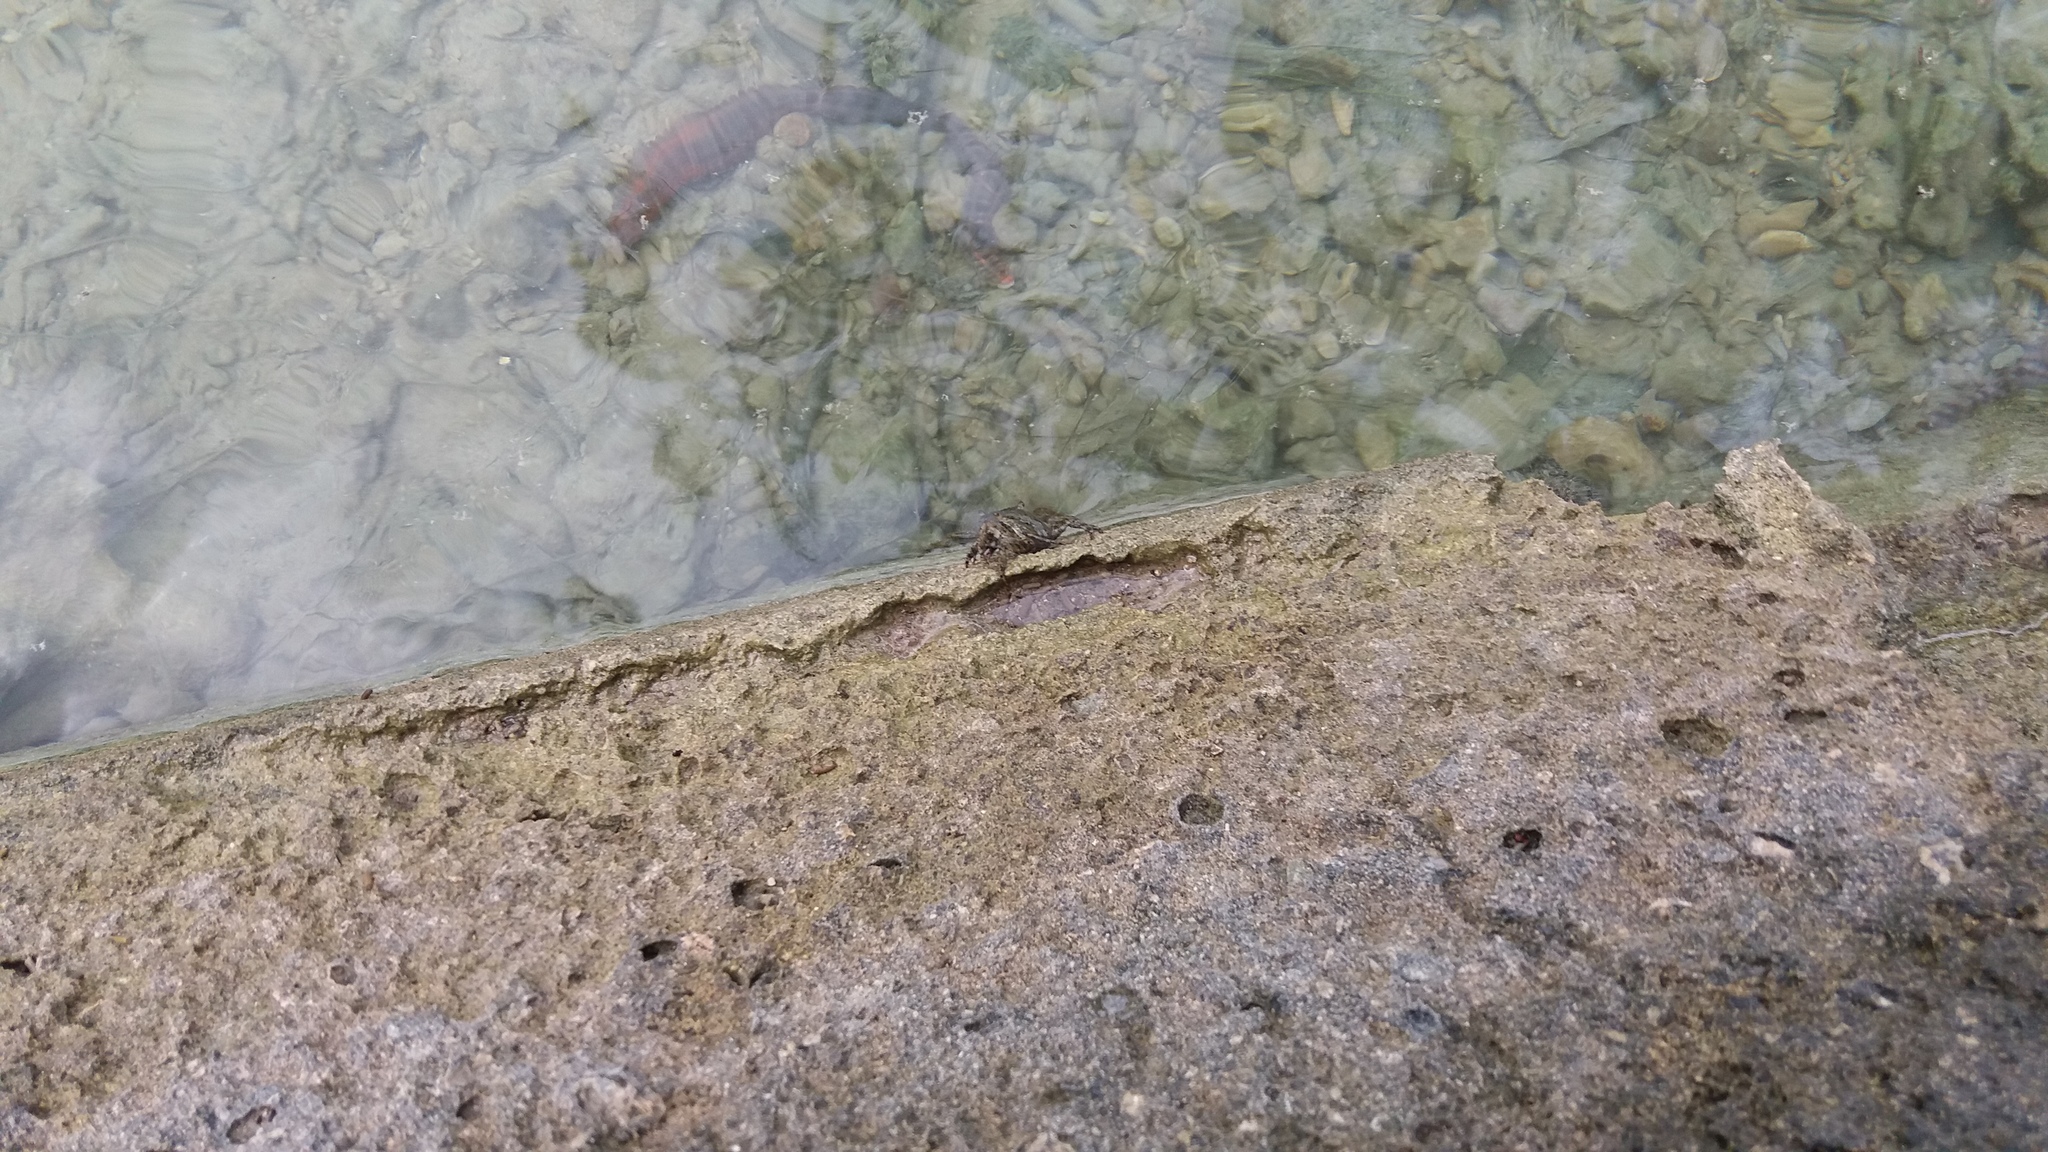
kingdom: Animalia
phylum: Arthropoda
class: Malacostraca
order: Decapoda
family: Grapsidae
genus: Grapsus
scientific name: Grapsus tenuicrustatus
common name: Natal lightfoot crab
